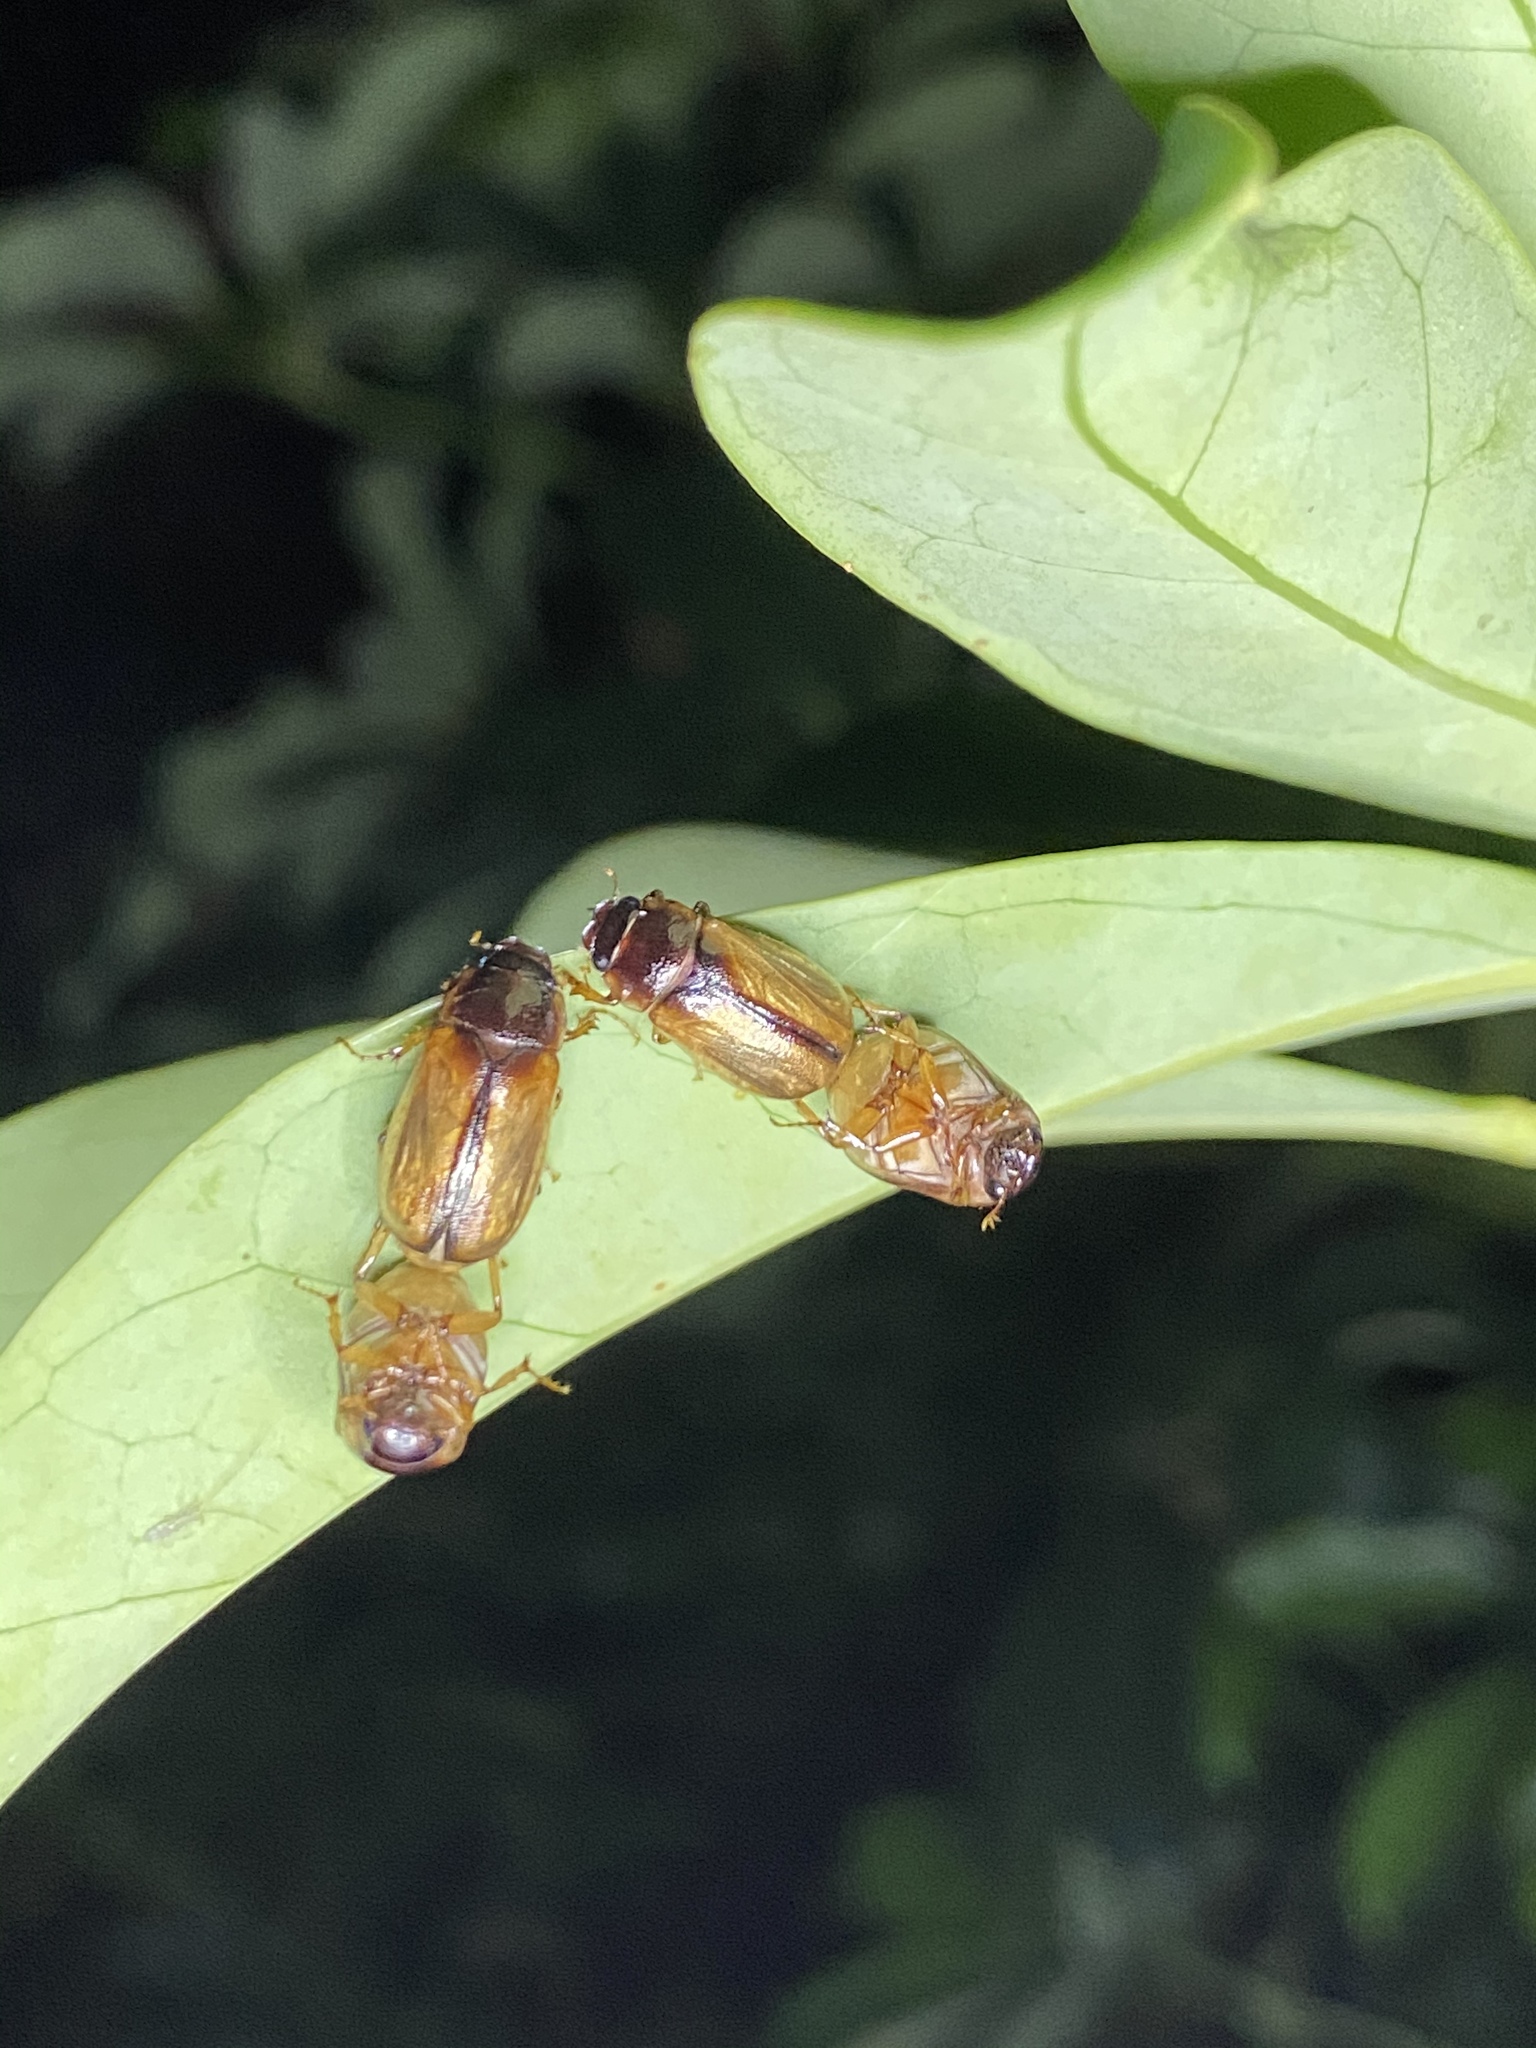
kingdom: Animalia
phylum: Arthropoda
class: Insecta
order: Coleoptera
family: Scarabaeidae
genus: Phyllophaga
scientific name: Phyllophaga bruneri
